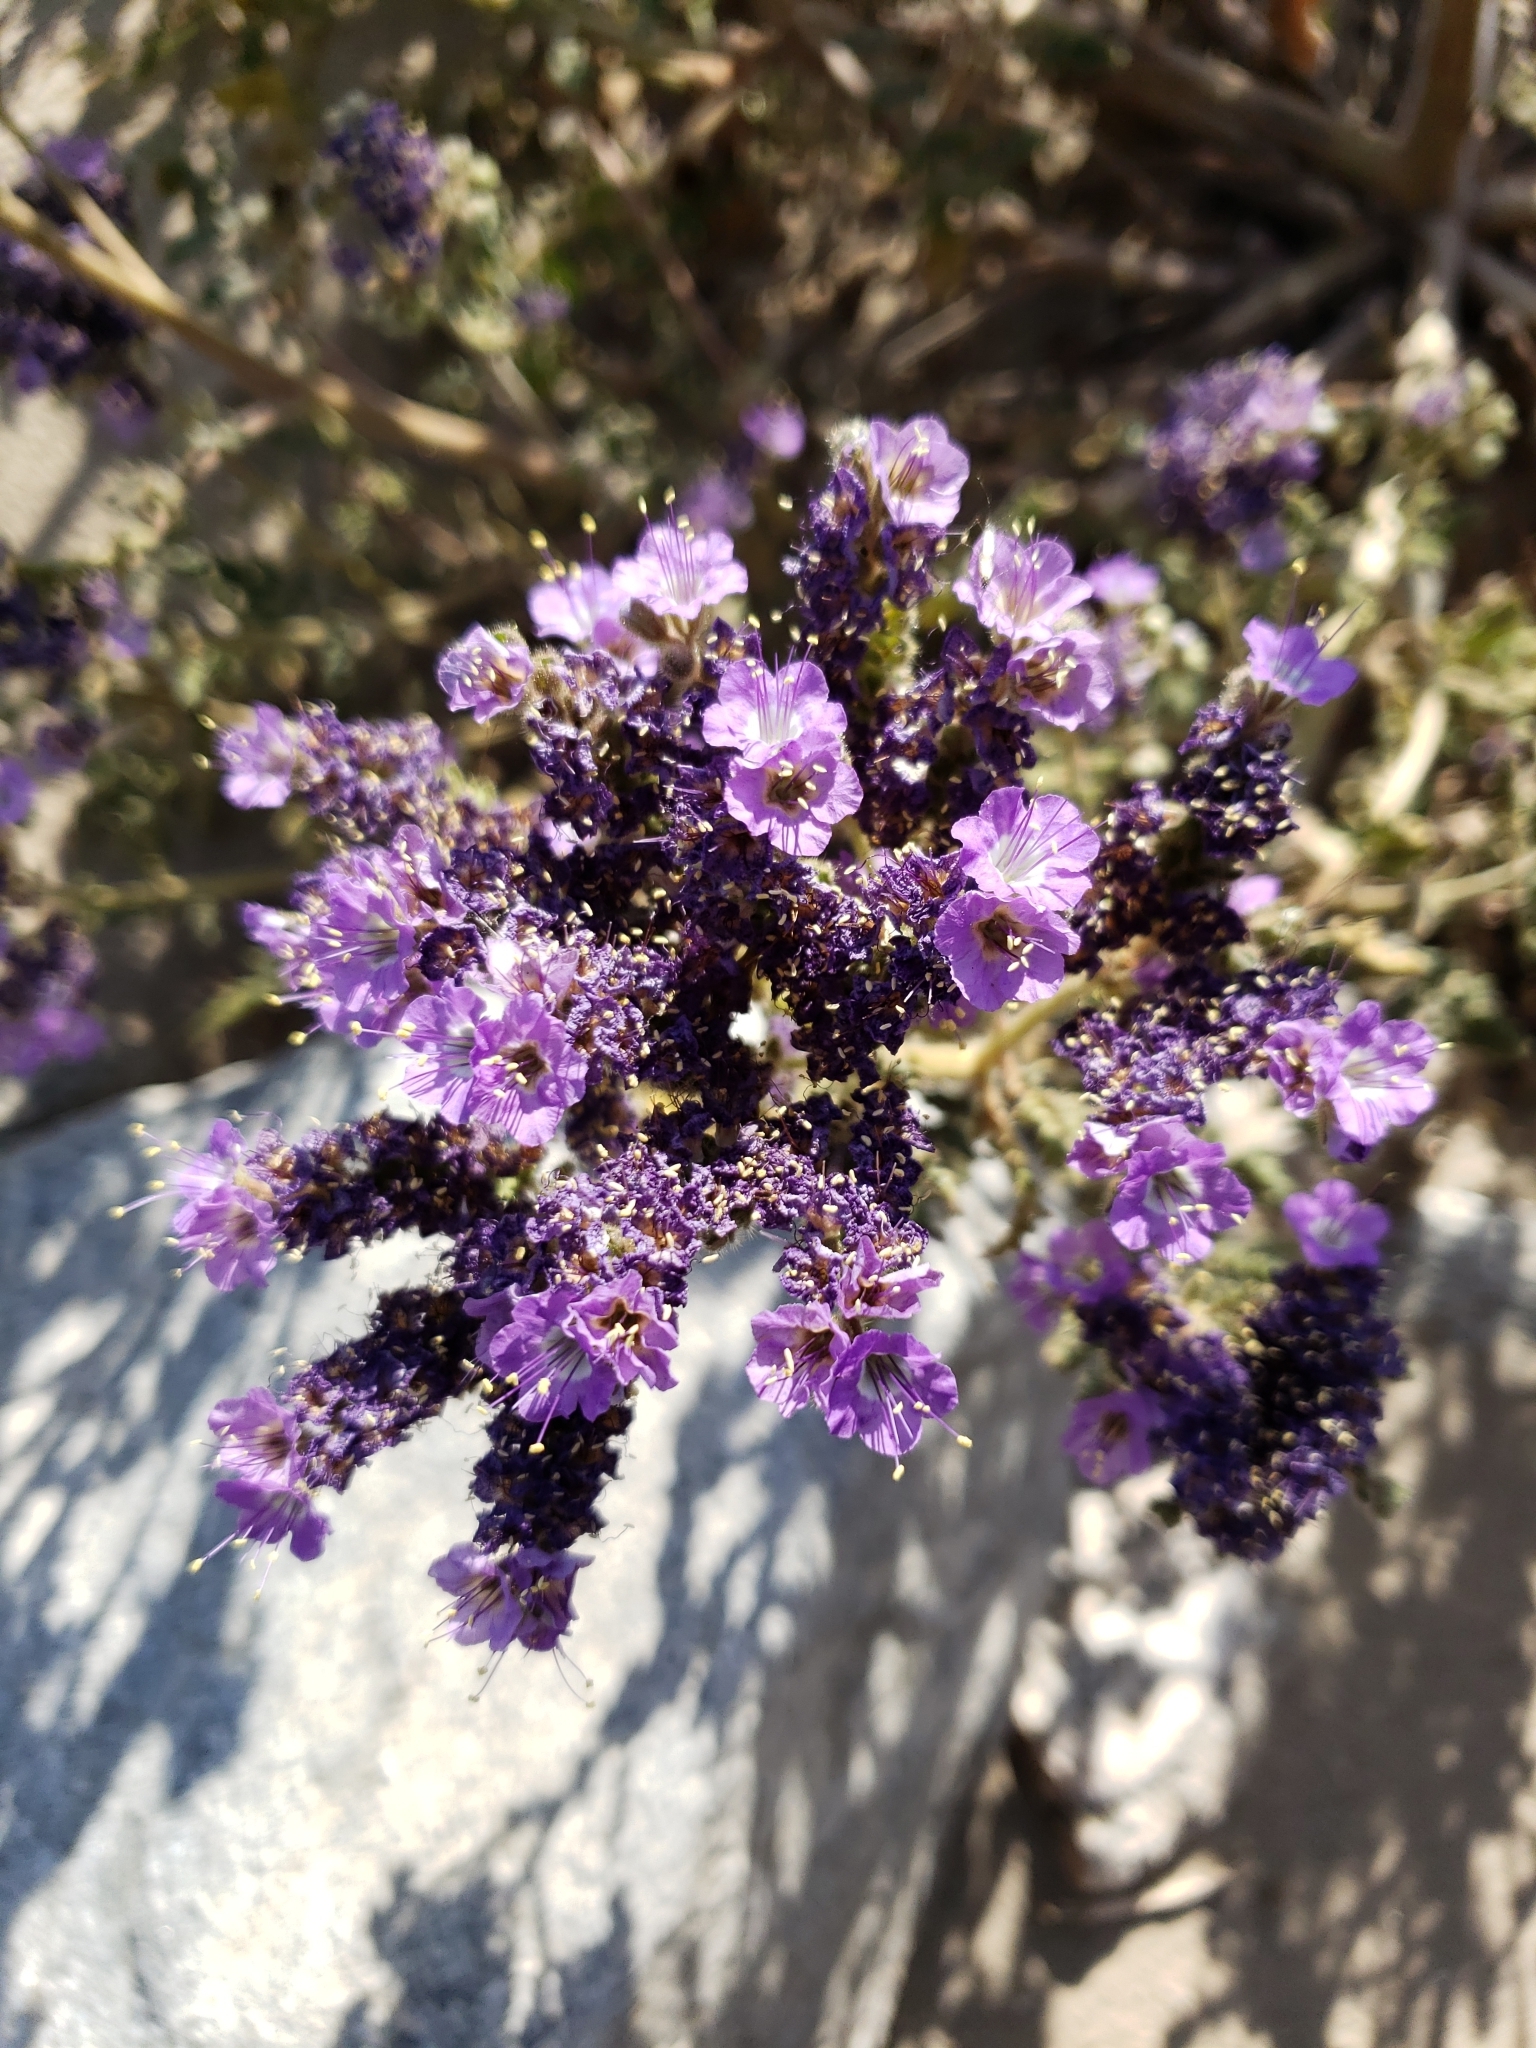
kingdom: Plantae
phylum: Tracheophyta
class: Magnoliopsida
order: Boraginales
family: Hydrophyllaceae
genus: Phacelia
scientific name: Phacelia crenulata
